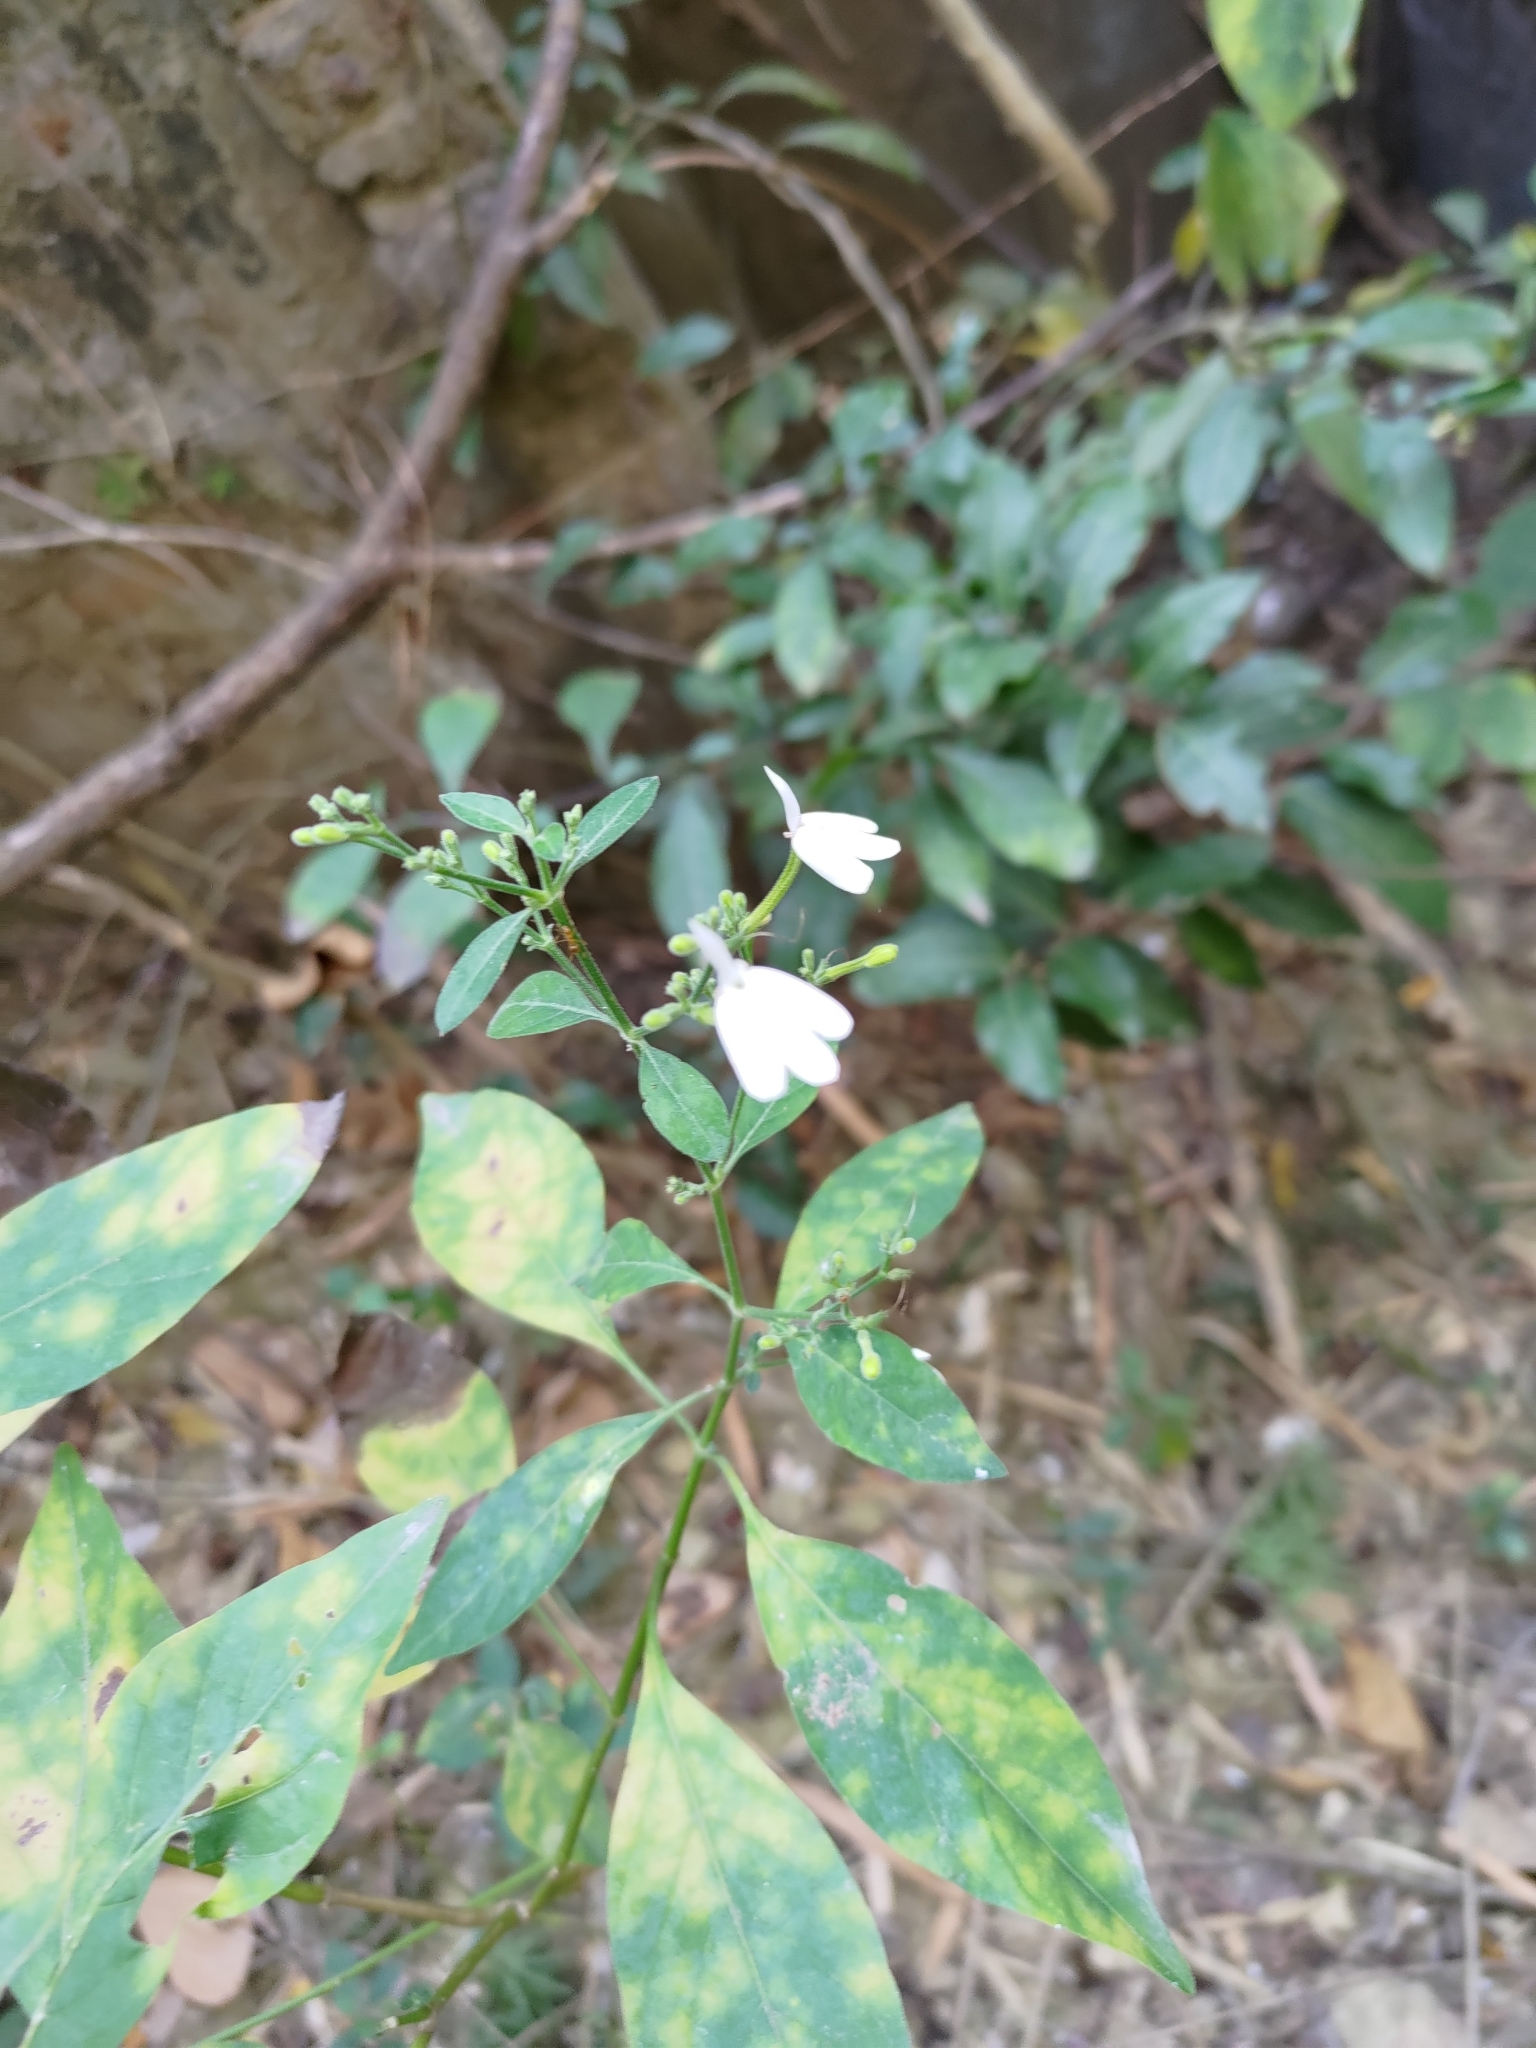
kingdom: Plantae
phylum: Tracheophyta
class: Magnoliopsida
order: Lamiales
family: Acanthaceae
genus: Rhinacanthus
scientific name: Rhinacanthus nasutus
